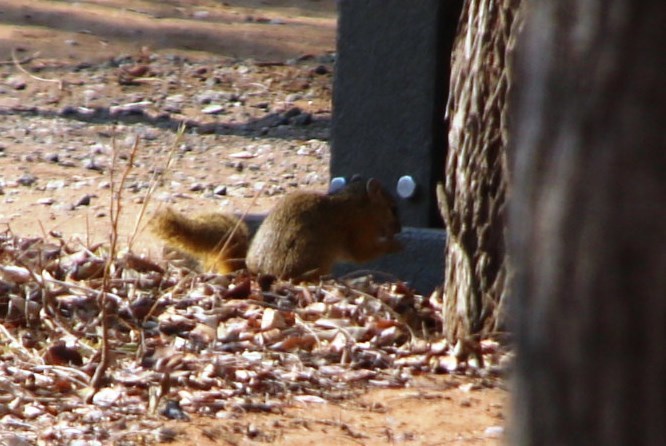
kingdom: Animalia
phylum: Chordata
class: Mammalia
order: Rodentia
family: Sciuridae
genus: Paraxerus
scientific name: Paraxerus cepapi
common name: Smith's bush squirrel
